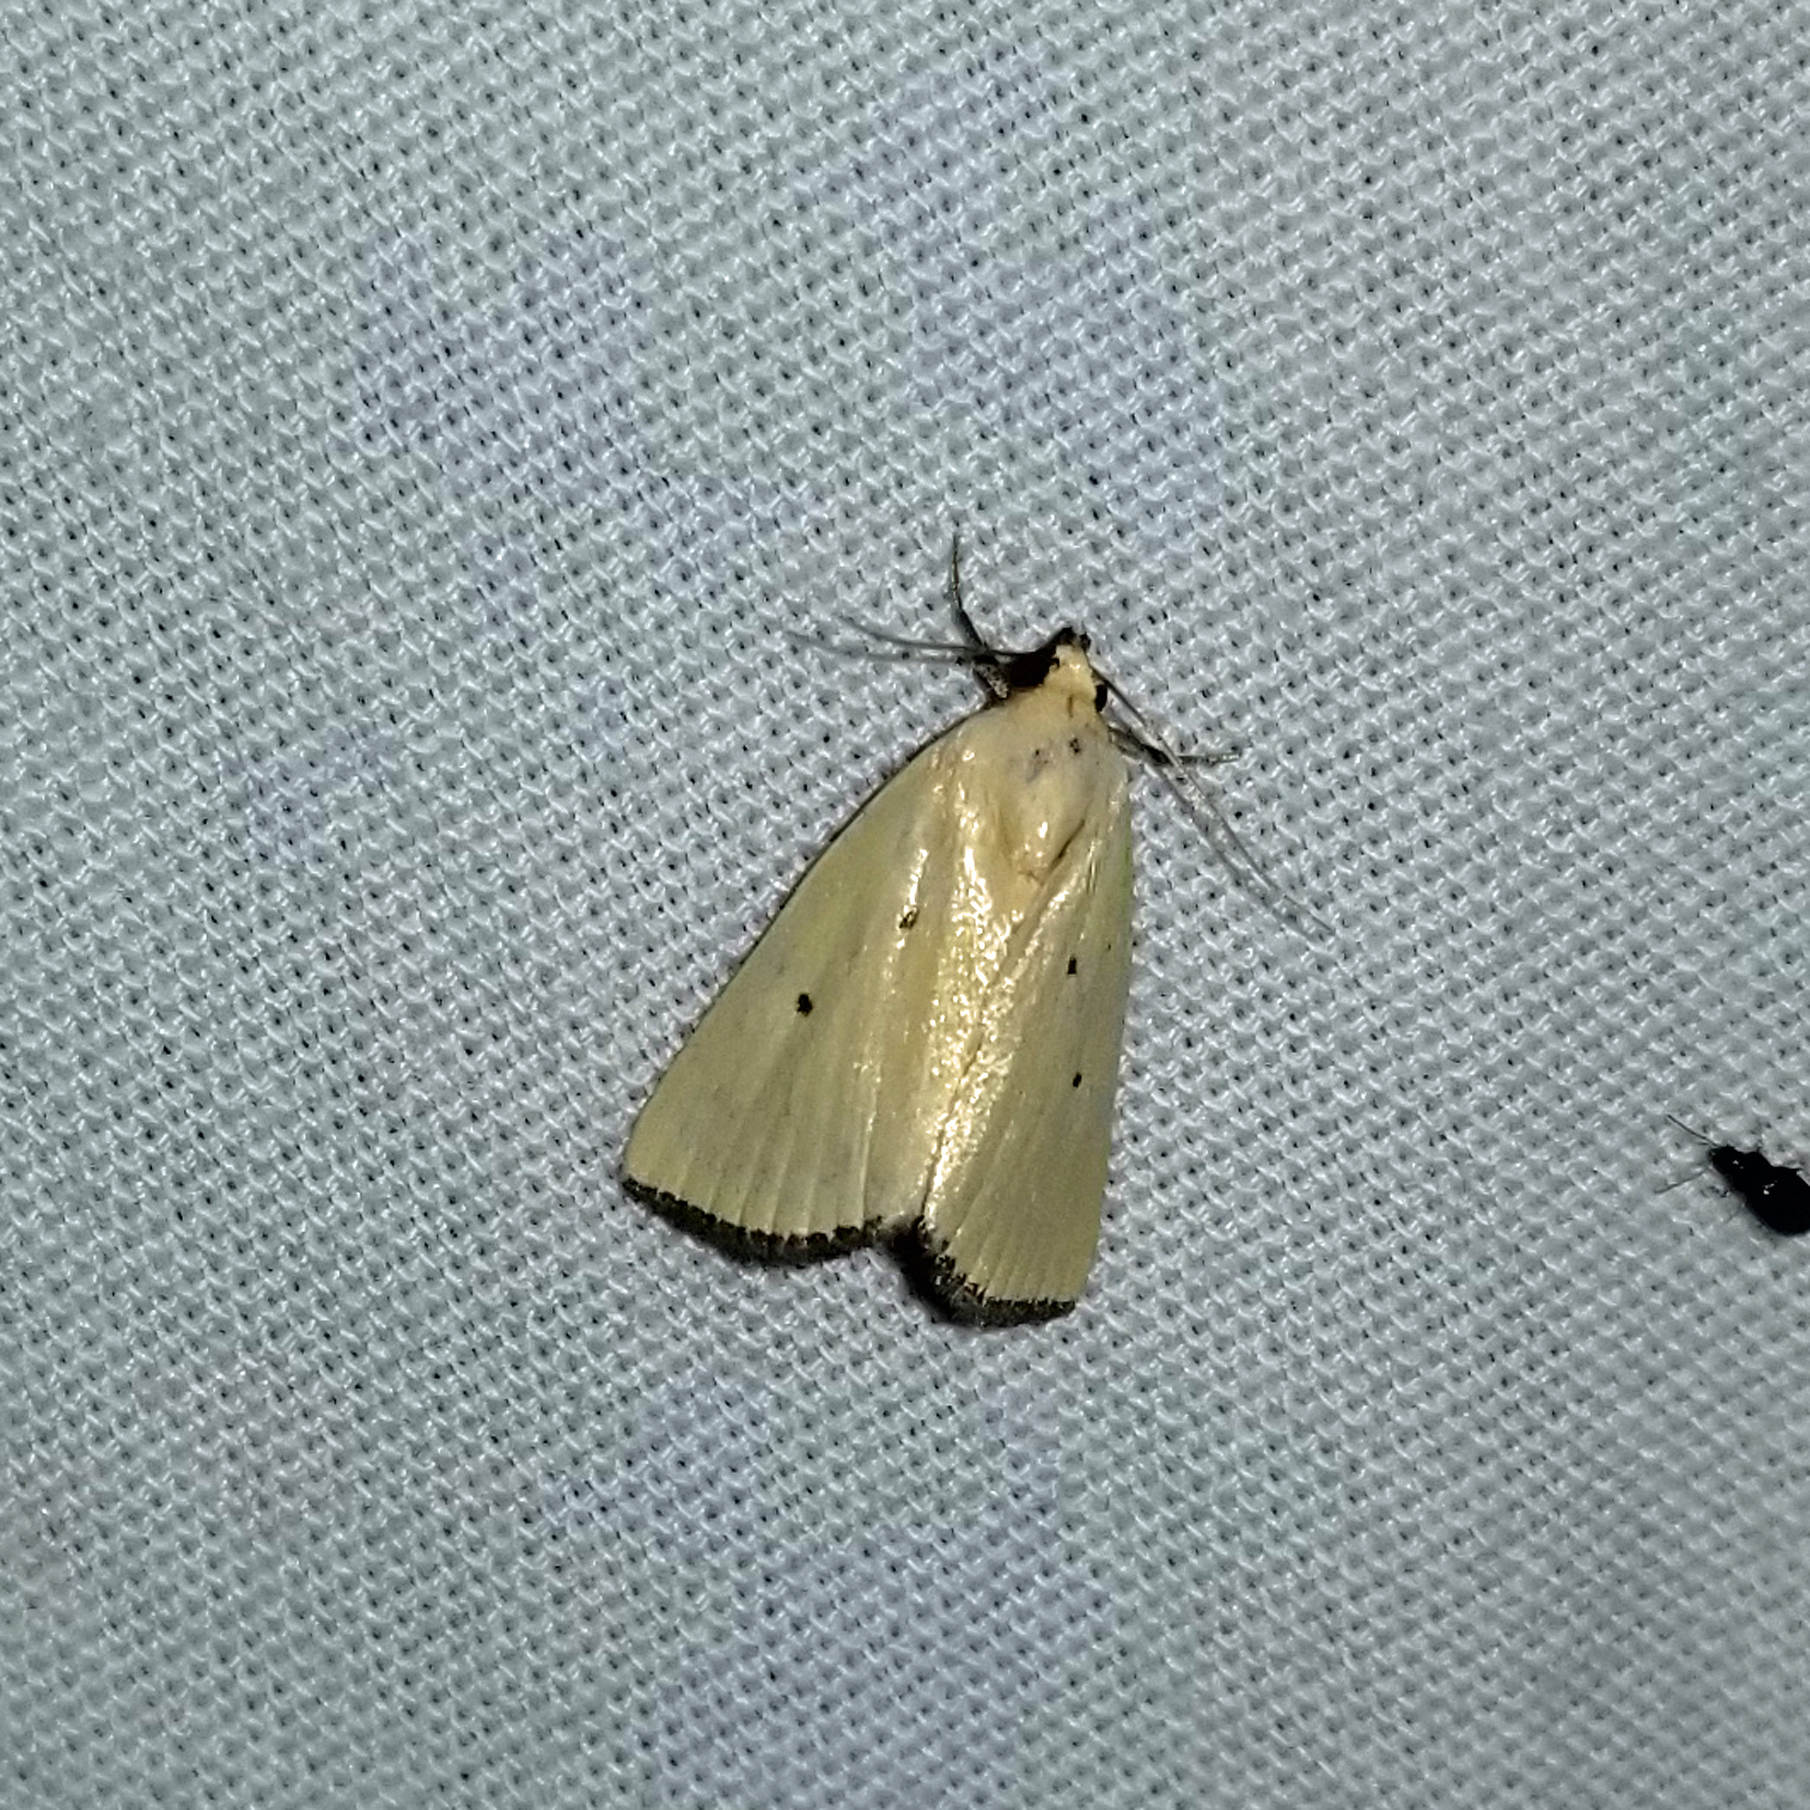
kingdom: Animalia
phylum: Arthropoda
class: Insecta
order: Lepidoptera
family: Noctuidae
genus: Marimatha
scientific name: Marimatha nigrofimbria
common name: Black-bordered lemon moth
